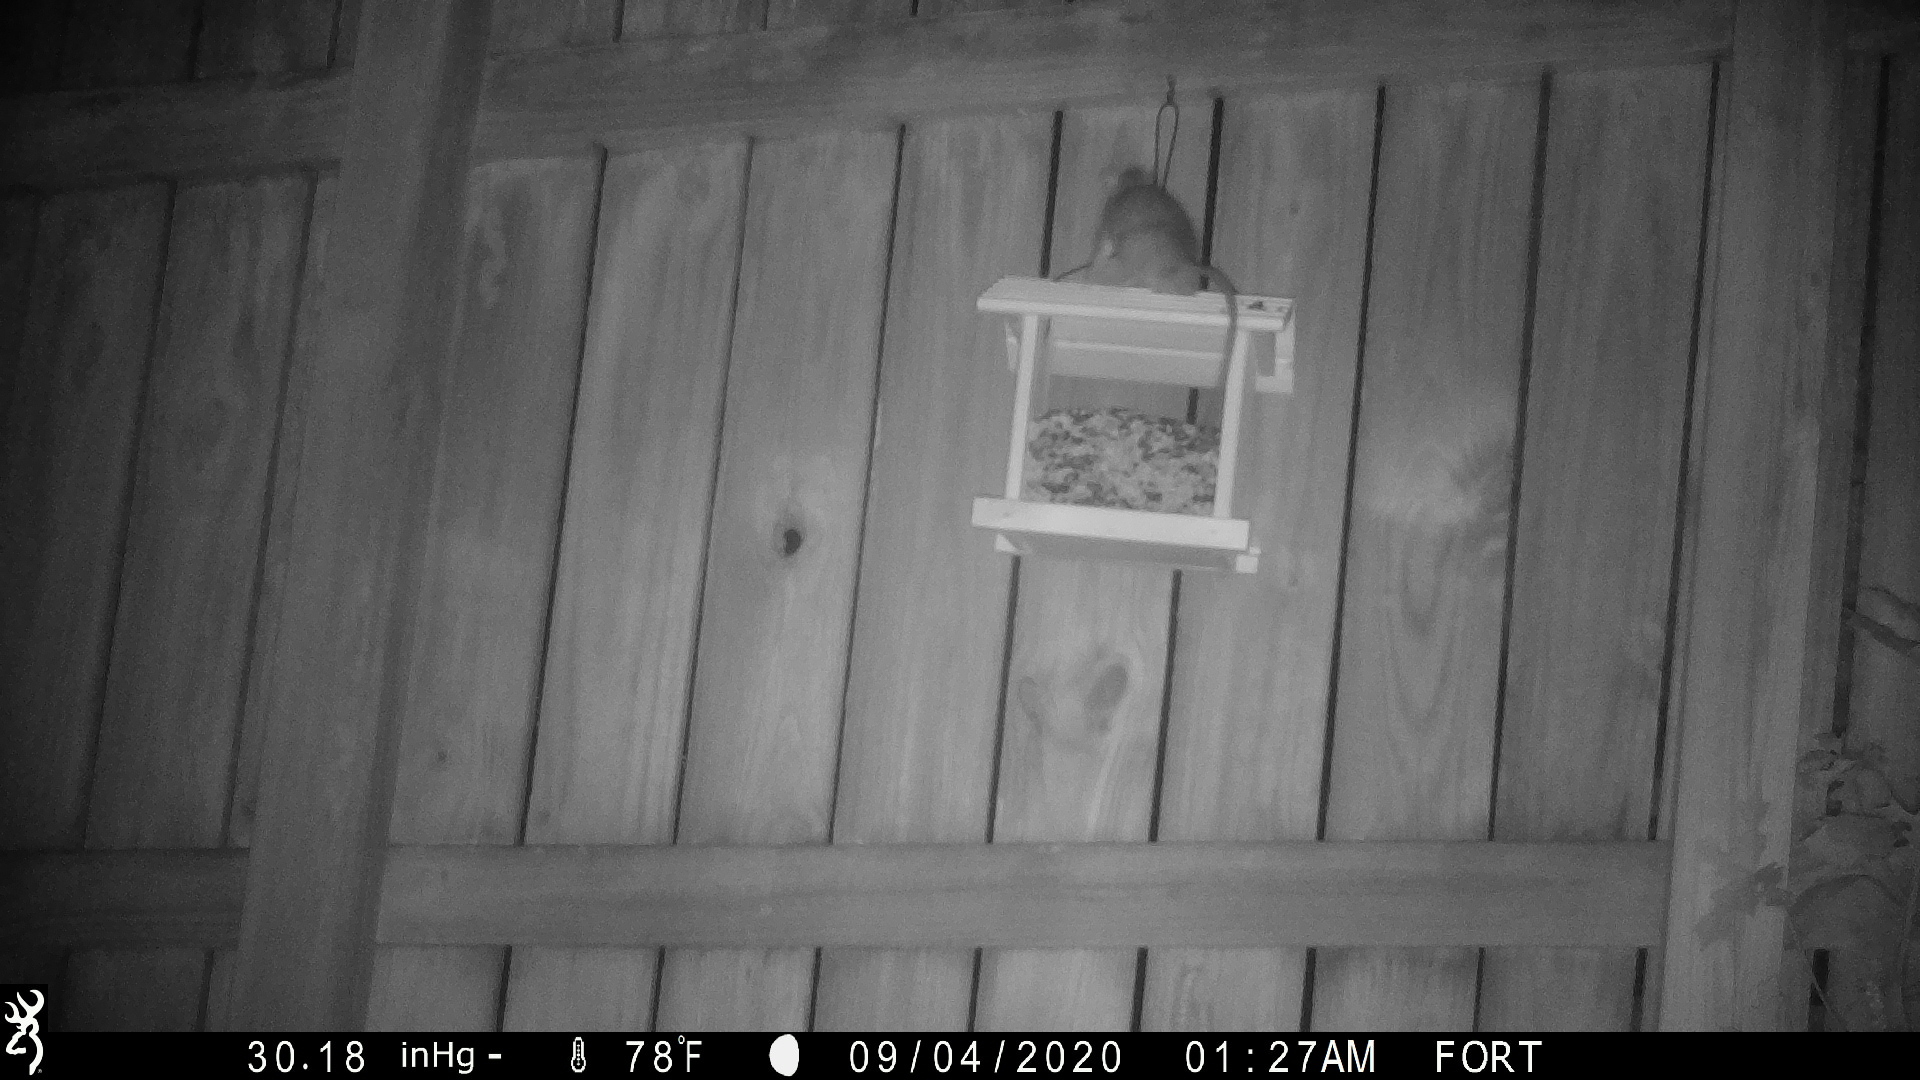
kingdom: Animalia
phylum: Chordata
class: Mammalia
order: Rodentia
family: Muridae
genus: Rattus
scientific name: Rattus rattus
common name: Black rat
